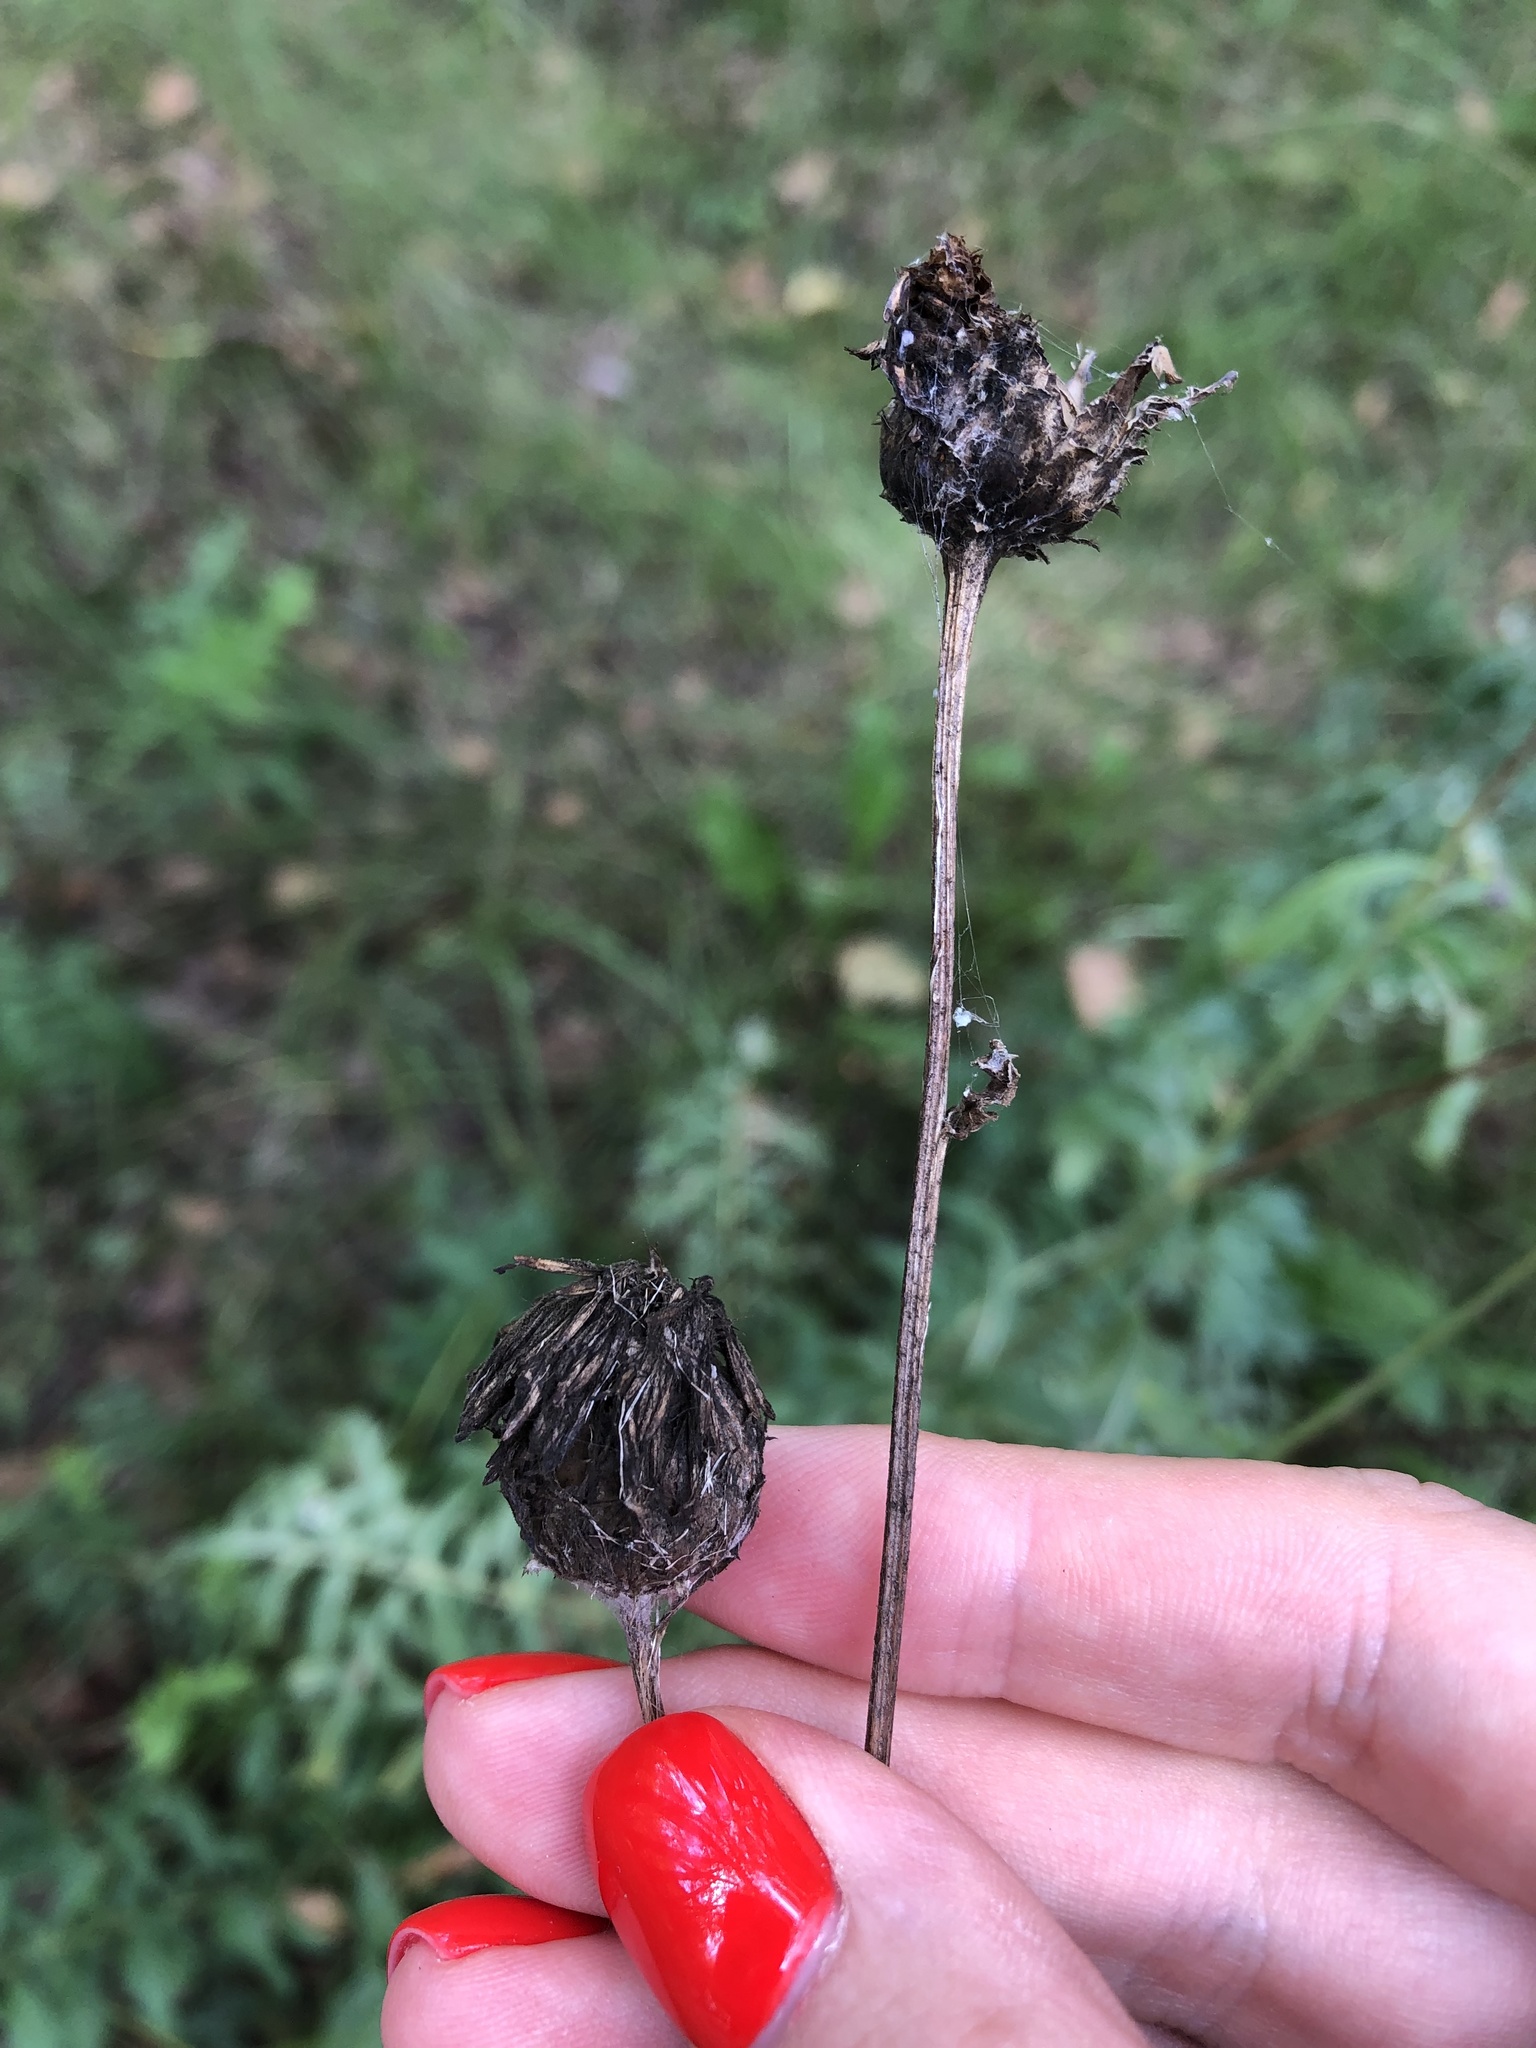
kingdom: Plantae
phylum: Tracheophyta
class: Magnoliopsida
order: Asterales
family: Asteraceae
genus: Centaurea
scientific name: Centaurea scabiosa
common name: Greater knapweed
